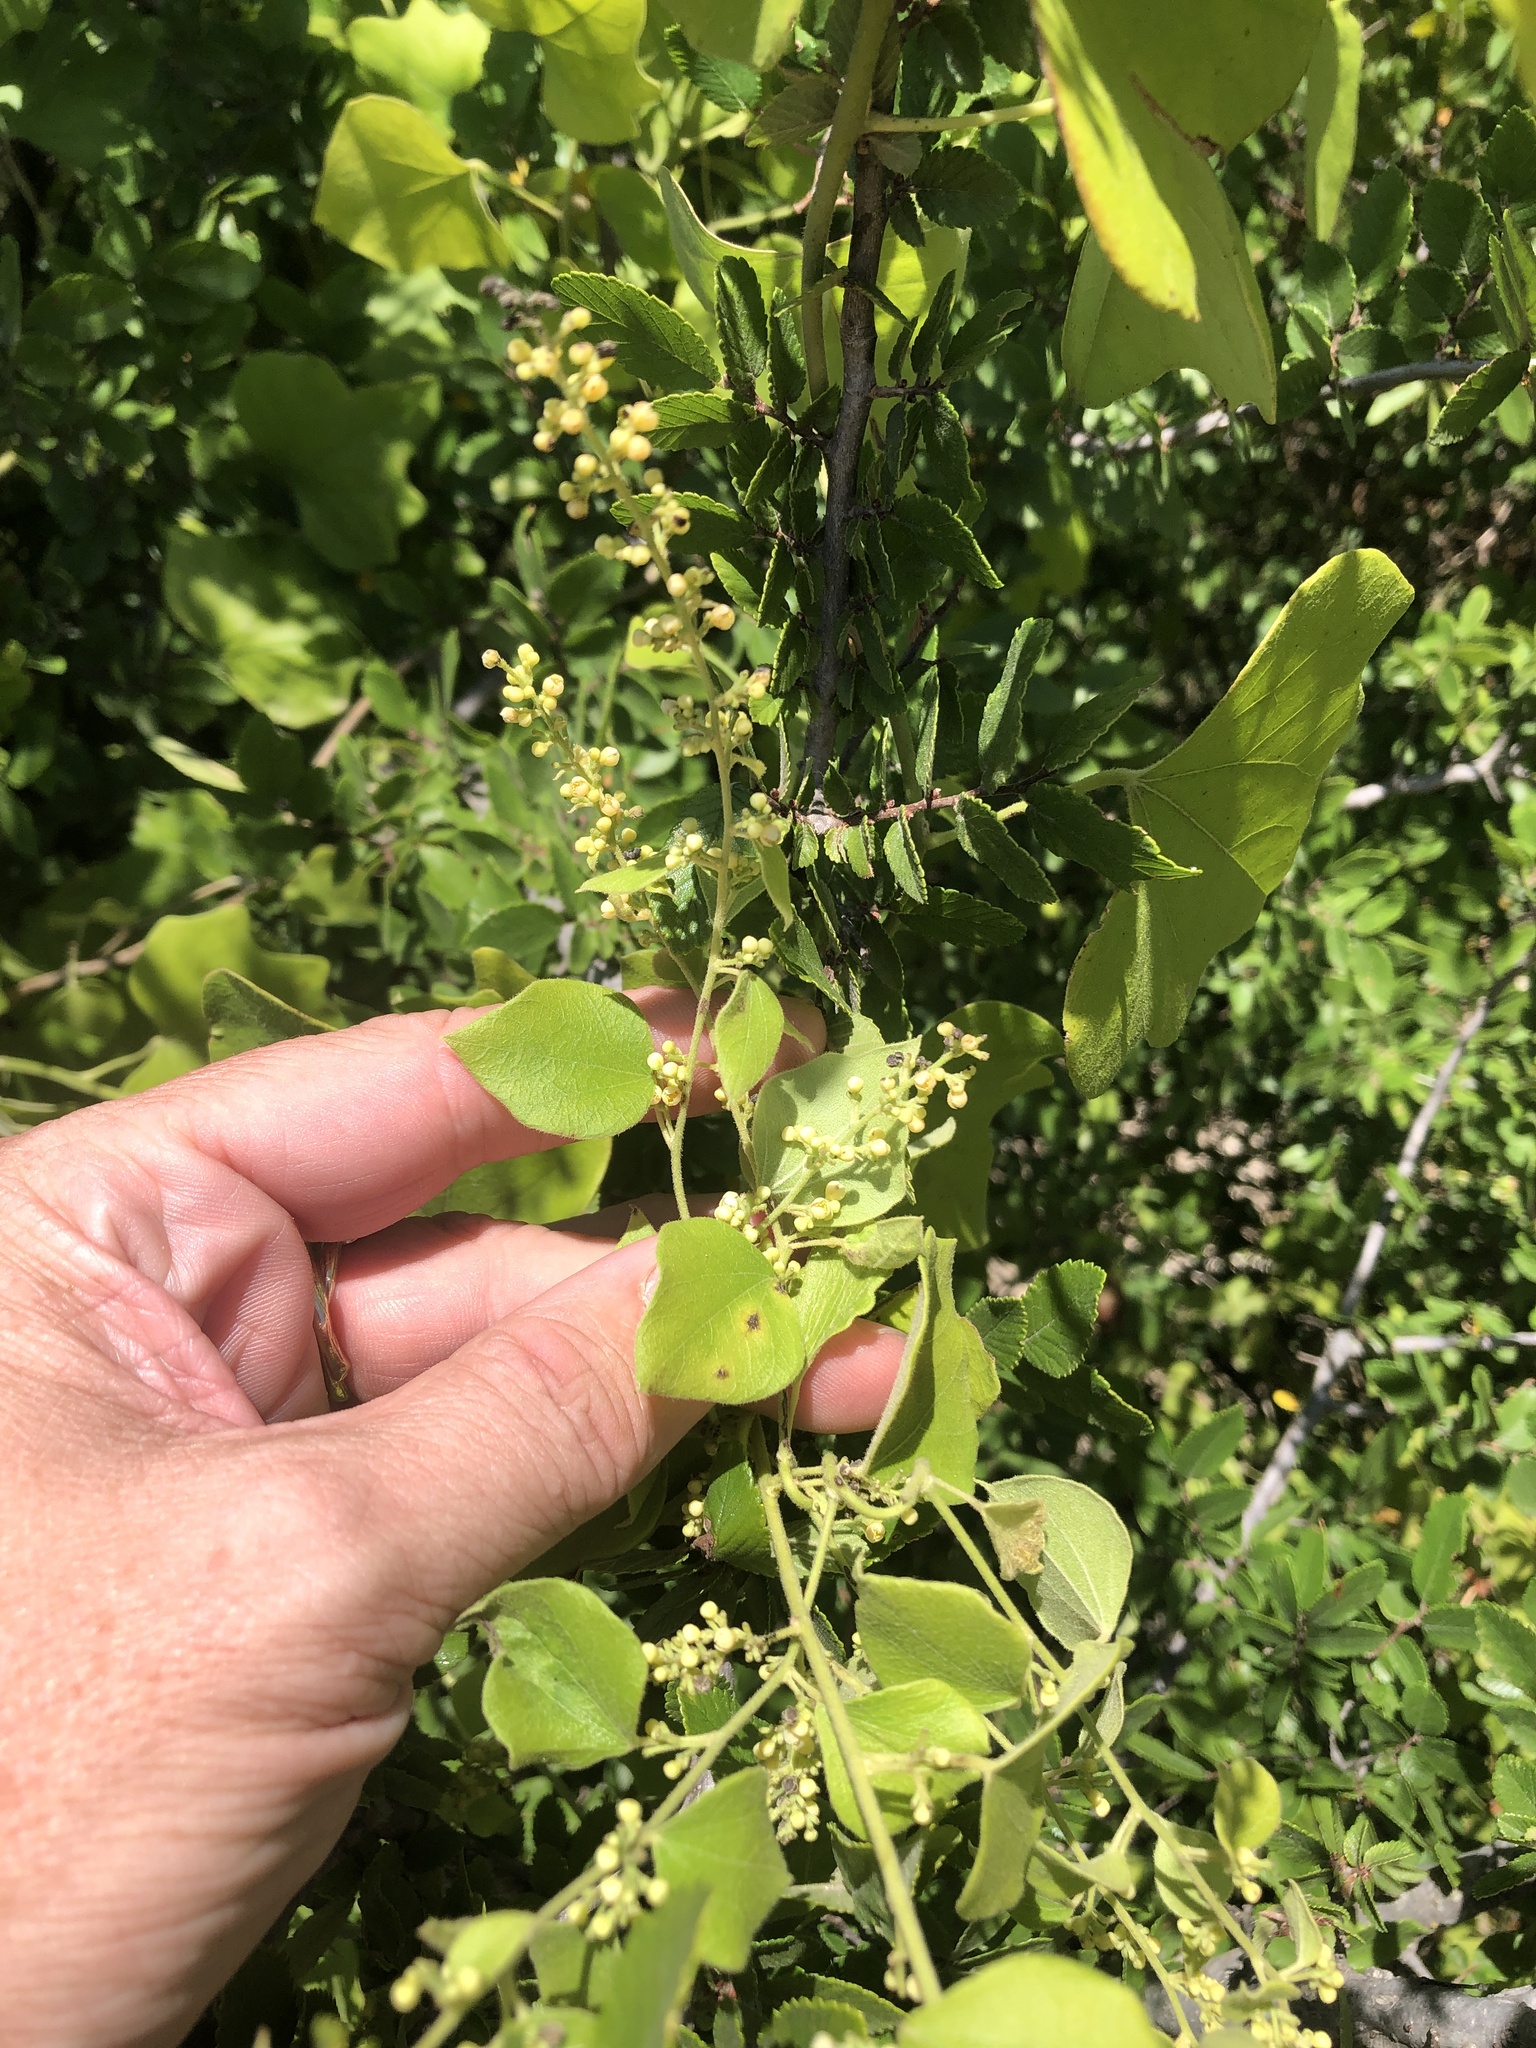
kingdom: Plantae
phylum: Tracheophyta
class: Magnoliopsida
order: Ranunculales
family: Menispermaceae
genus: Cocculus
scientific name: Cocculus carolinus
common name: Carolina moonseed
